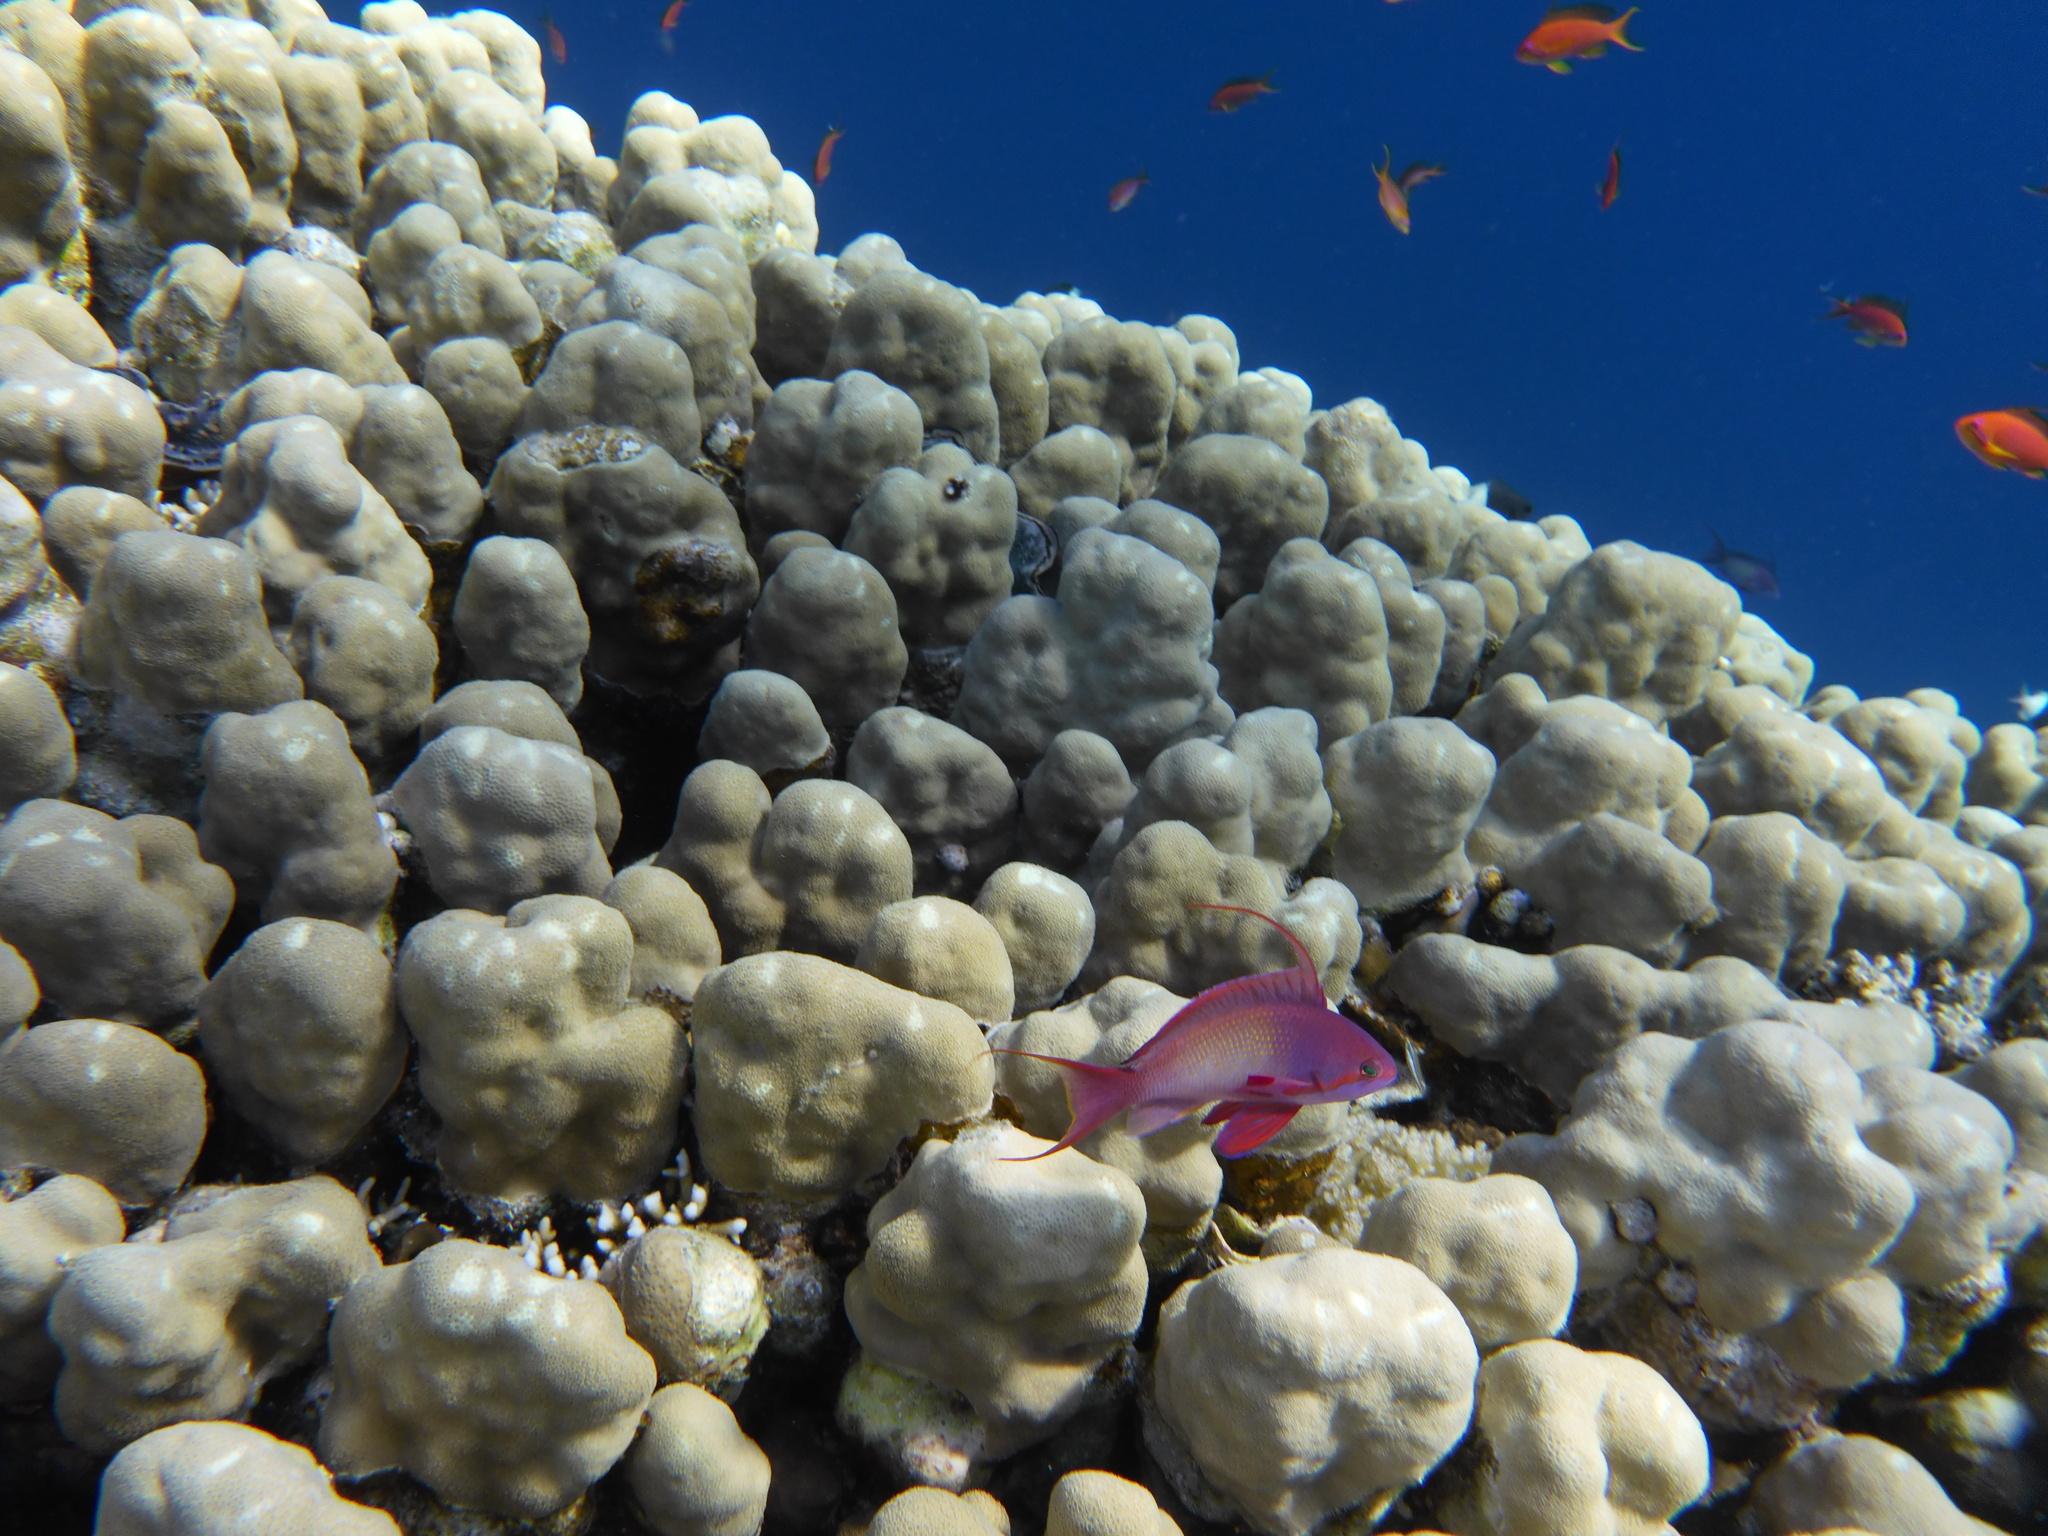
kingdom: Animalia
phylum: Chordata
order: Perciformes
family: Serranidae
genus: Pseudanthias
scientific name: Pseudanthias squamipinnis
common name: Scalefin anthias
